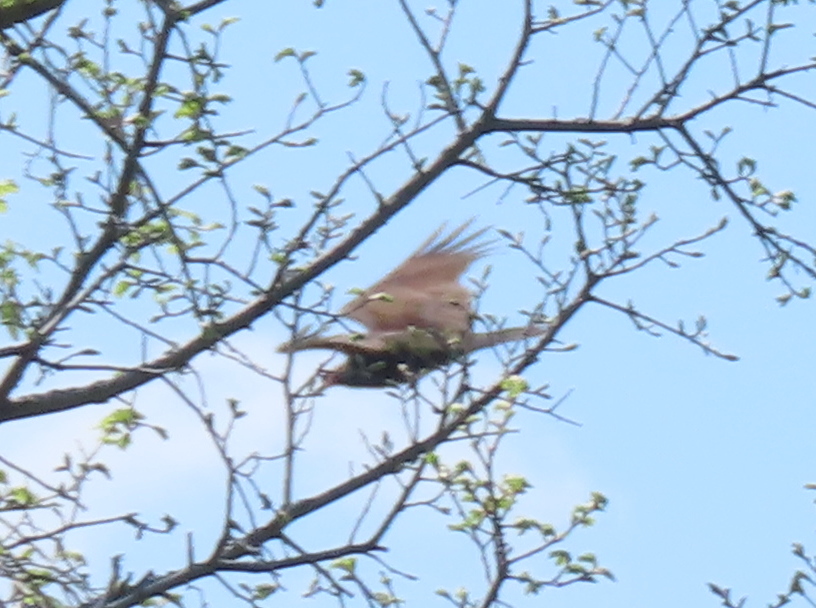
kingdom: Animalia
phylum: Chordata
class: Aves
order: Accipitriformes
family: Cathartidae
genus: Cathartes
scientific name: Cathartes aura
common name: Turkey vulture
